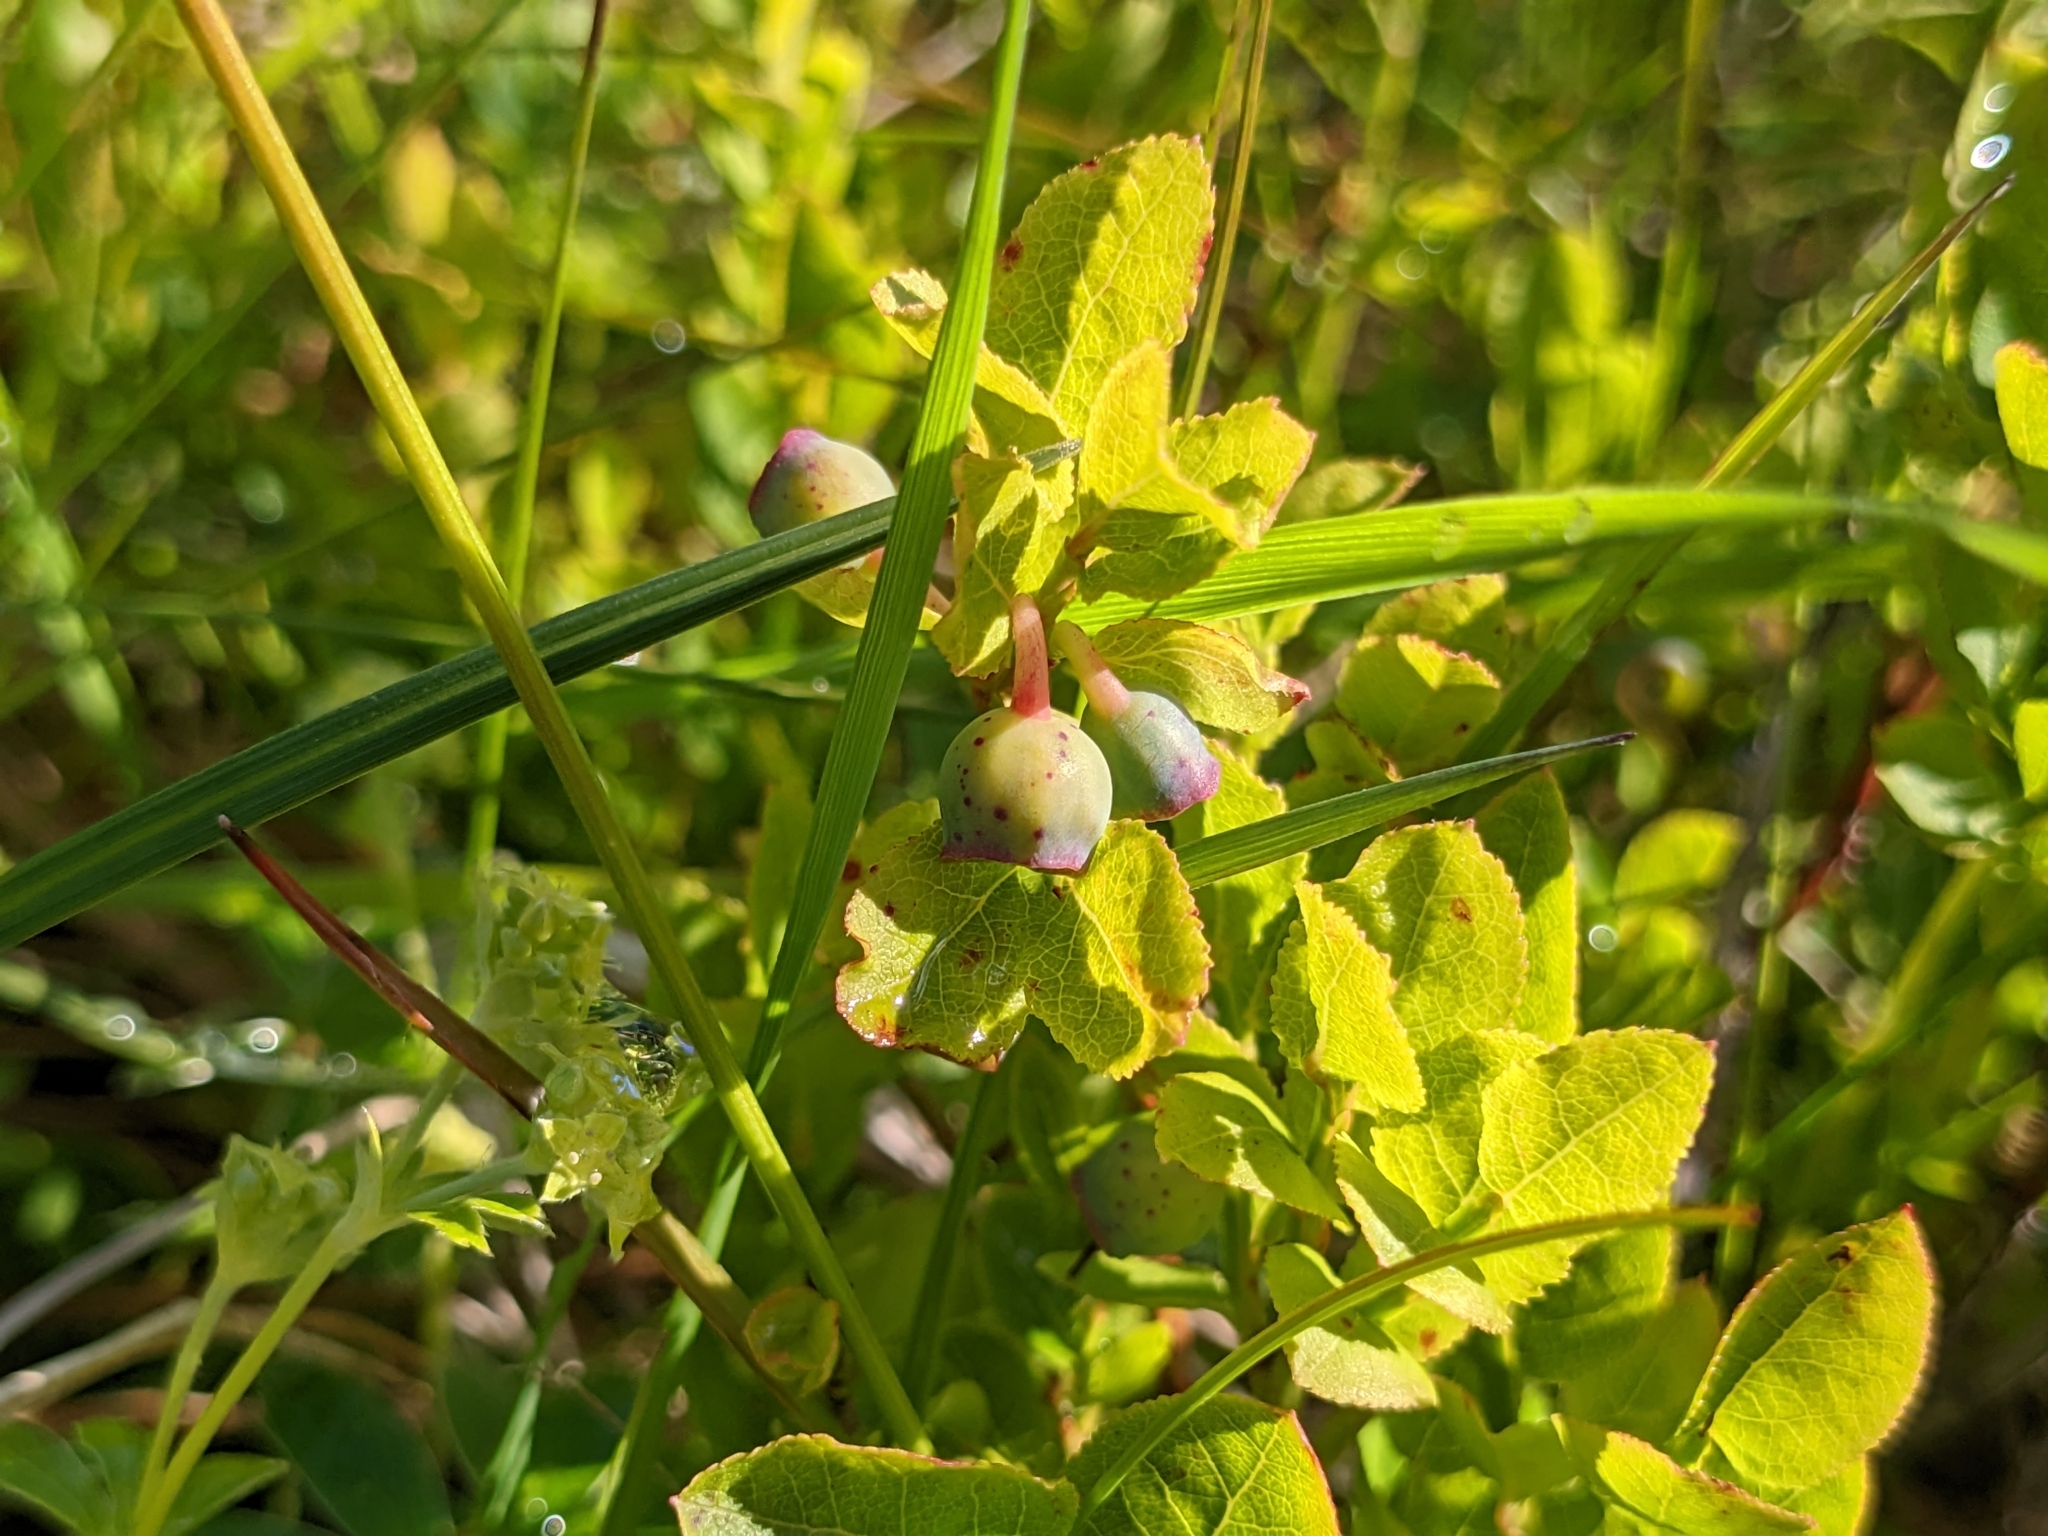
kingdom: Plantae
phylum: Tracheophyta
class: Magnoliopsida
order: Ericales
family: Ericaceae
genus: Vaccinium
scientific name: Vaccinium myrtillus
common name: Bilberry
